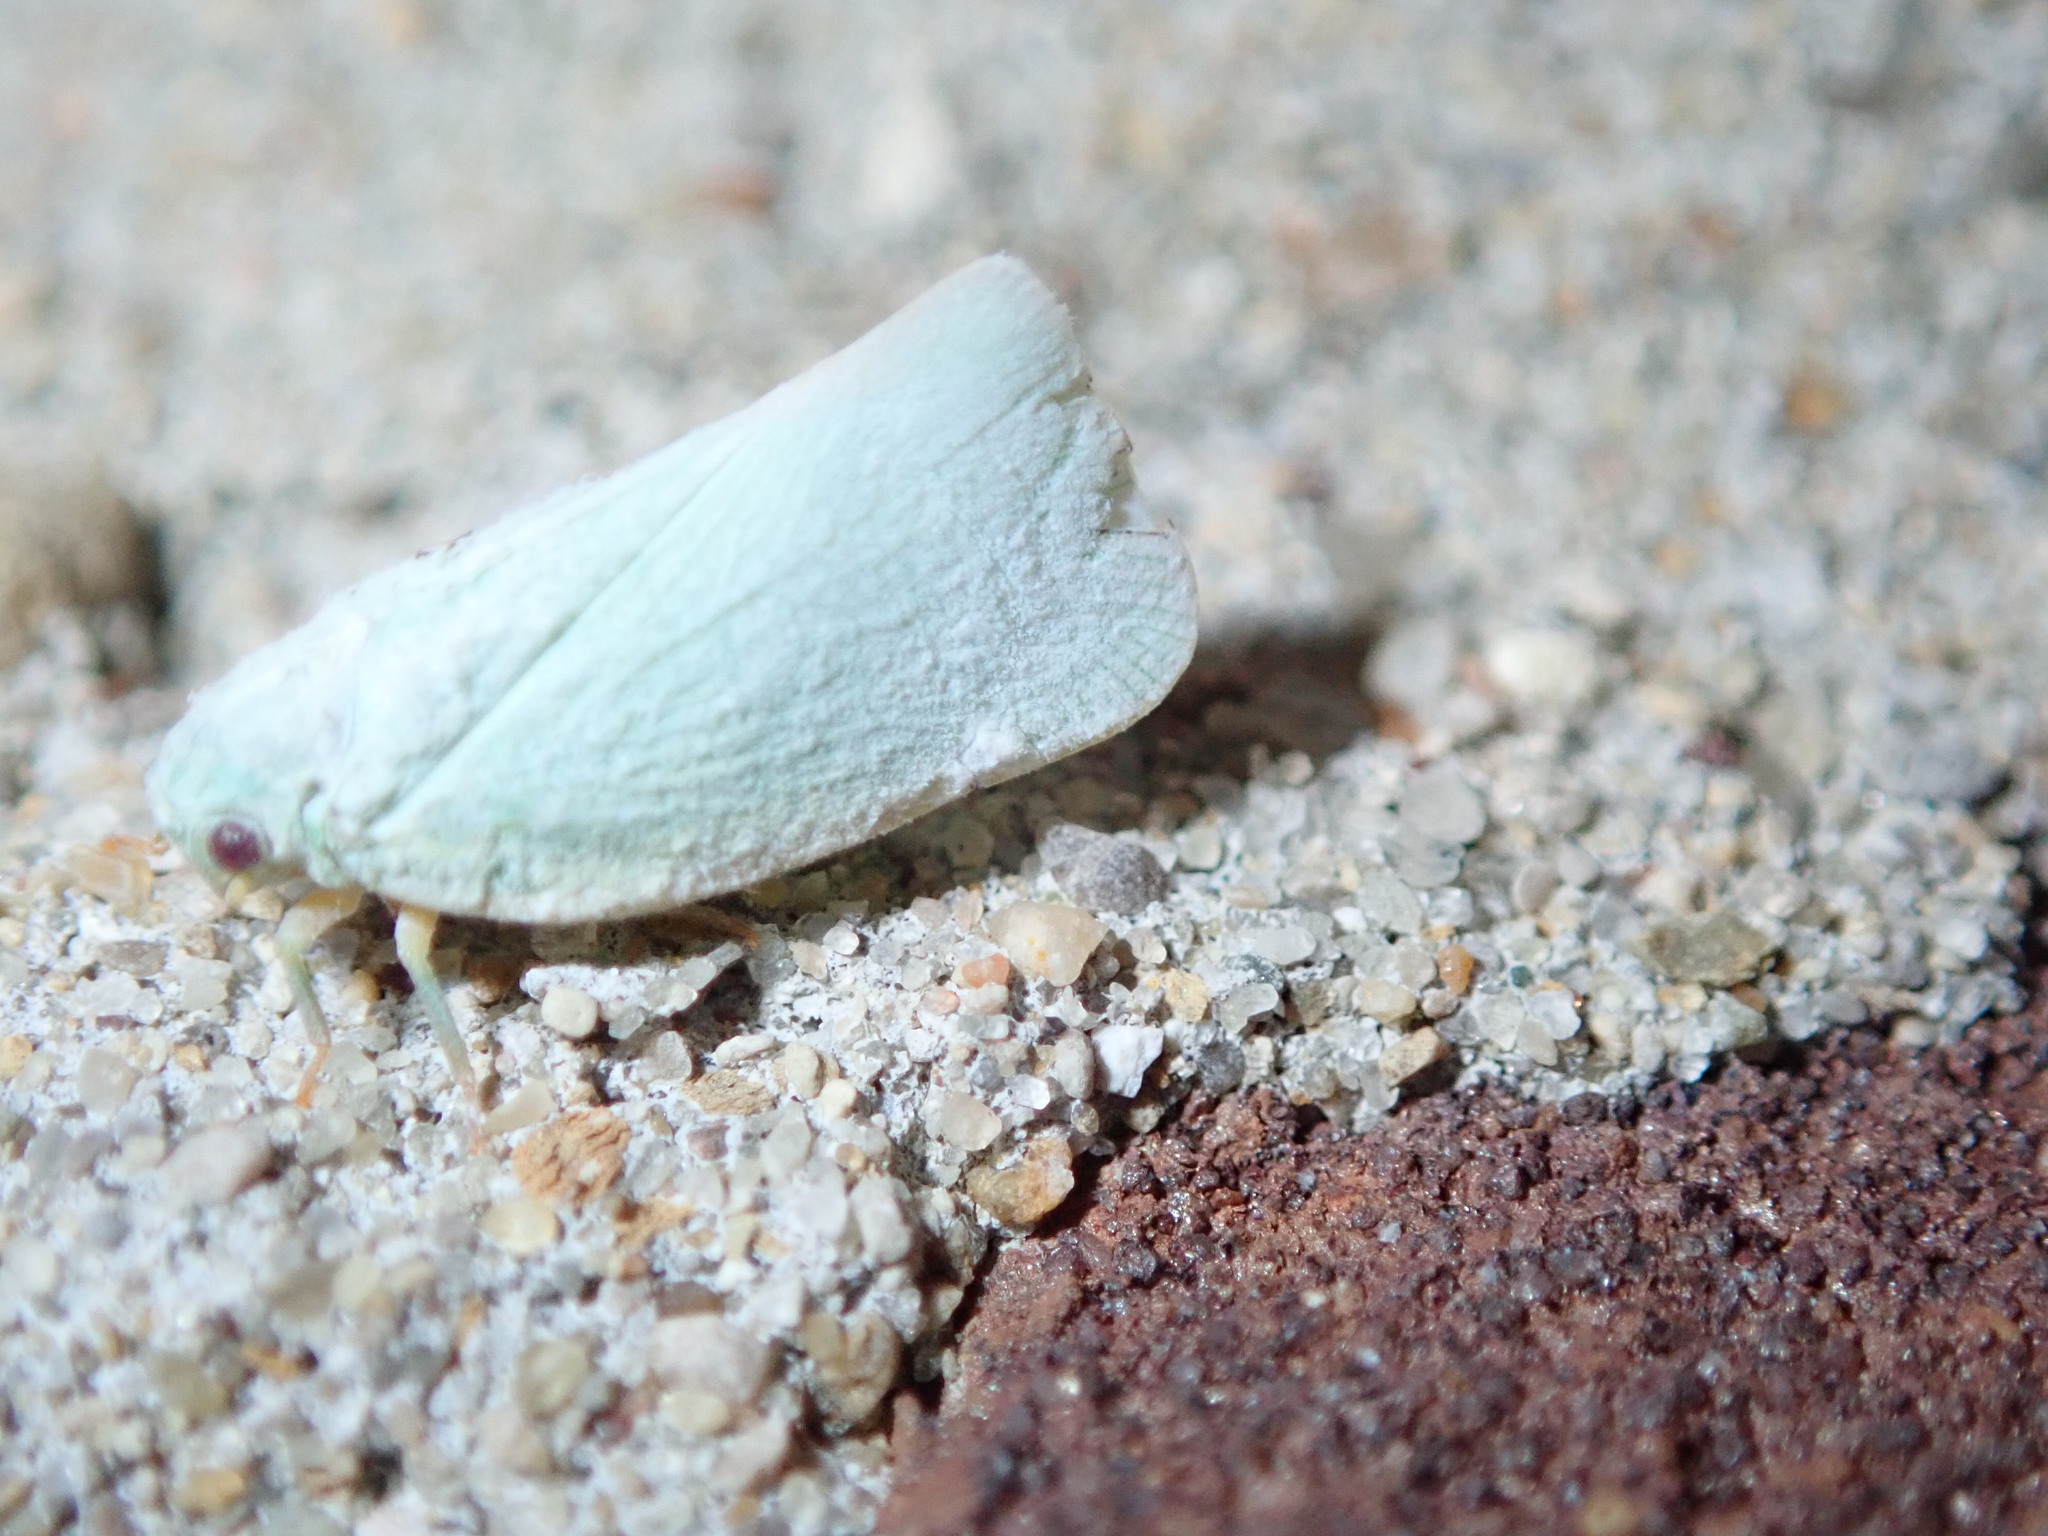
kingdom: Animalia
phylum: Arthropoda
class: Insecta
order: Hemiptera
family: Flatidae
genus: Flatormenis
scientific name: Flatormenis proxima
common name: Northern flatid planthopper
